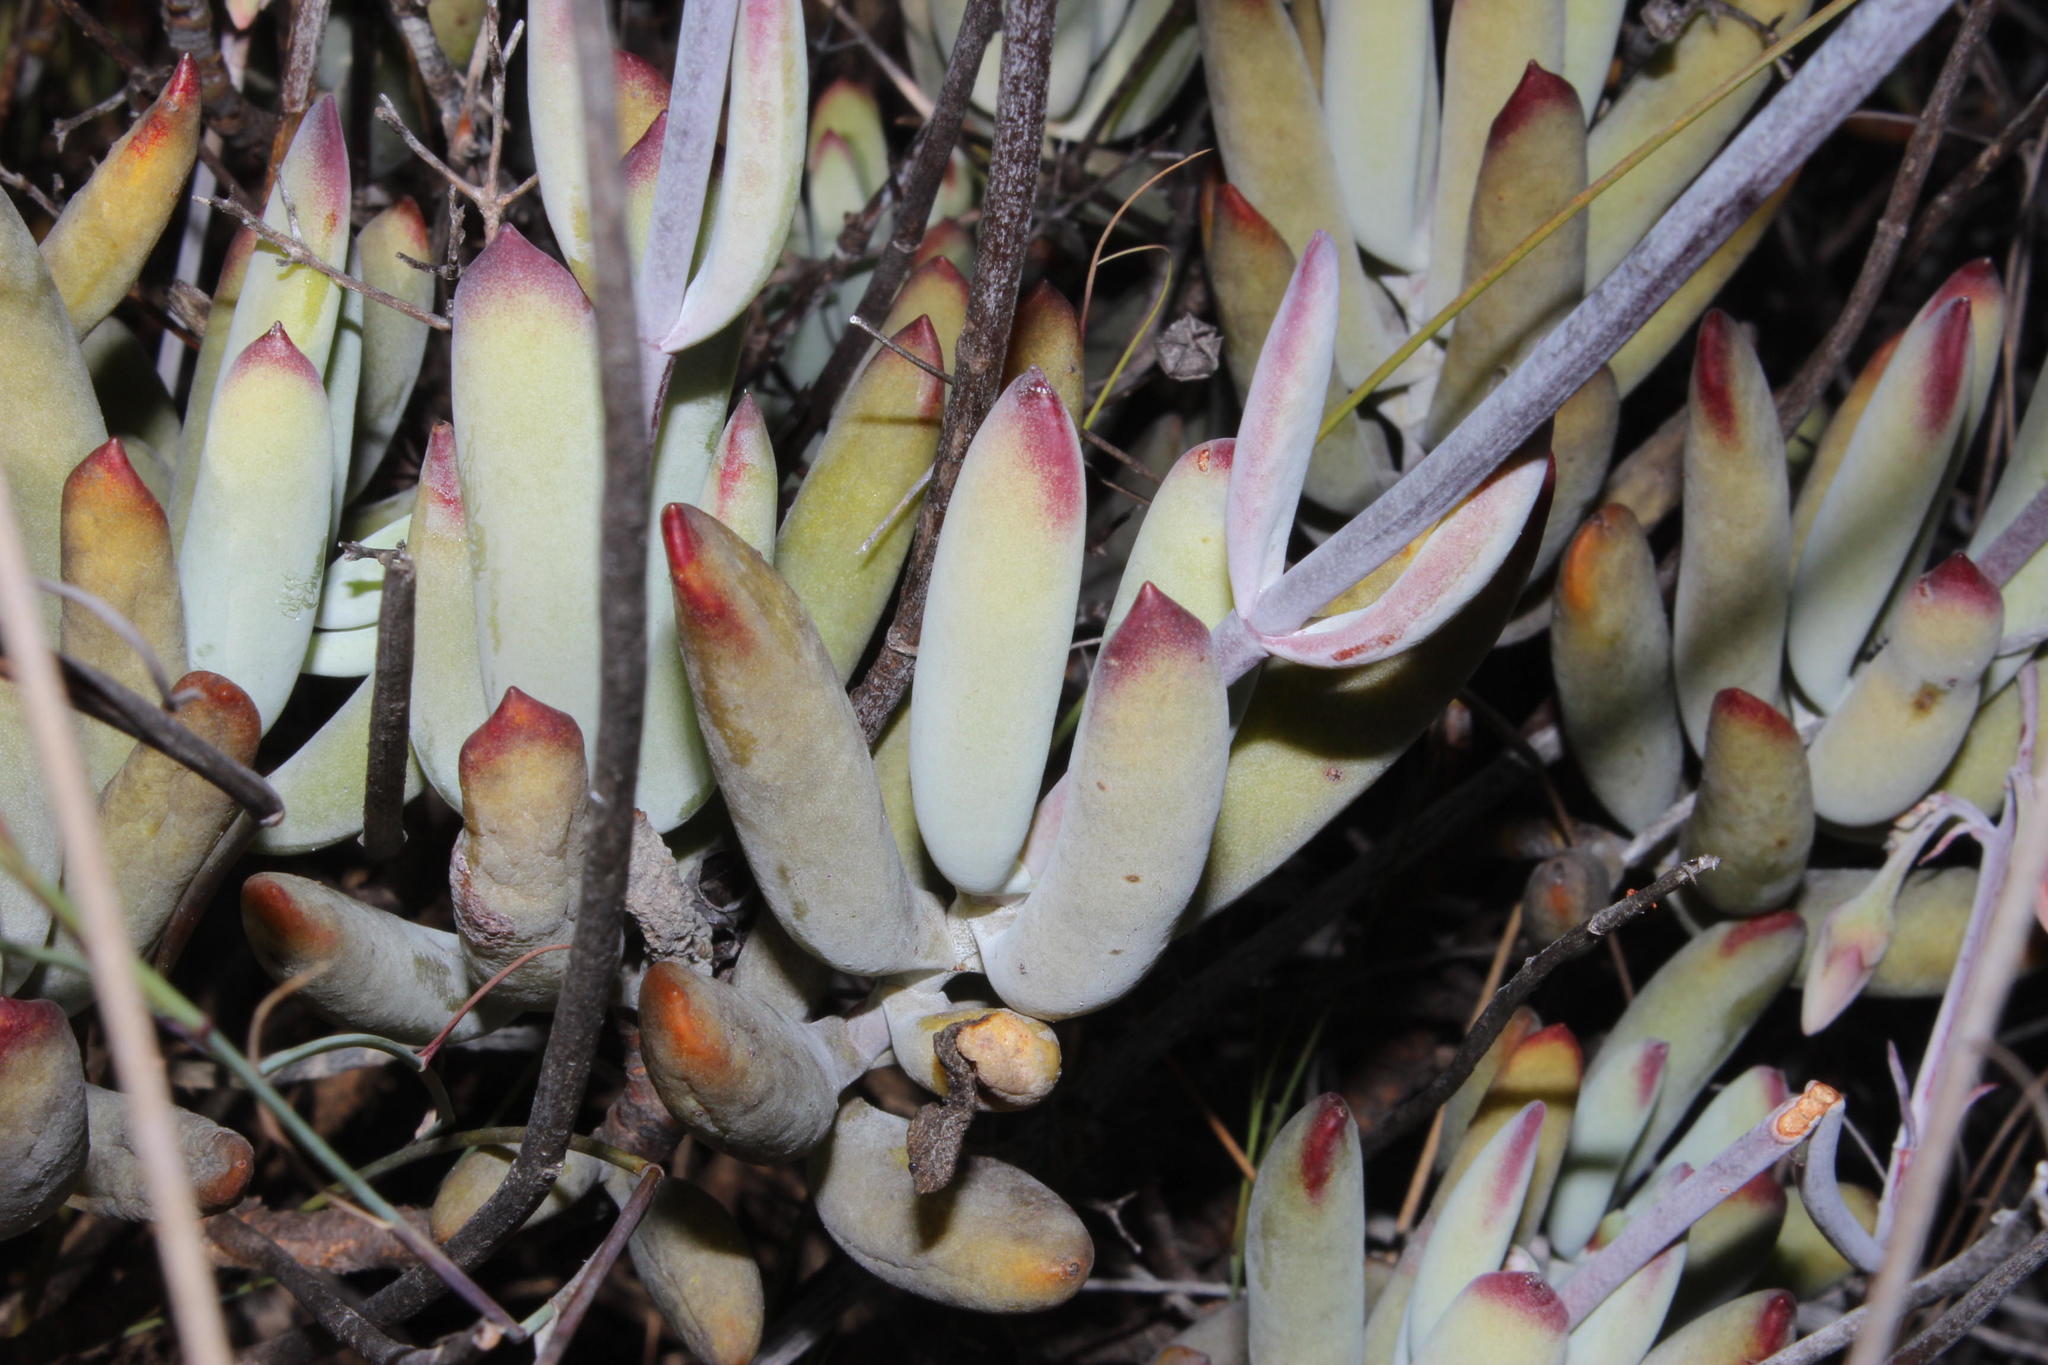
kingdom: Plantae
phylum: Tracheophyta
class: Magnoliopsida
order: Saxifragales
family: Crassulaceae
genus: Cotyledon
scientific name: Cotyledon orbiculata
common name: Pig's ear
